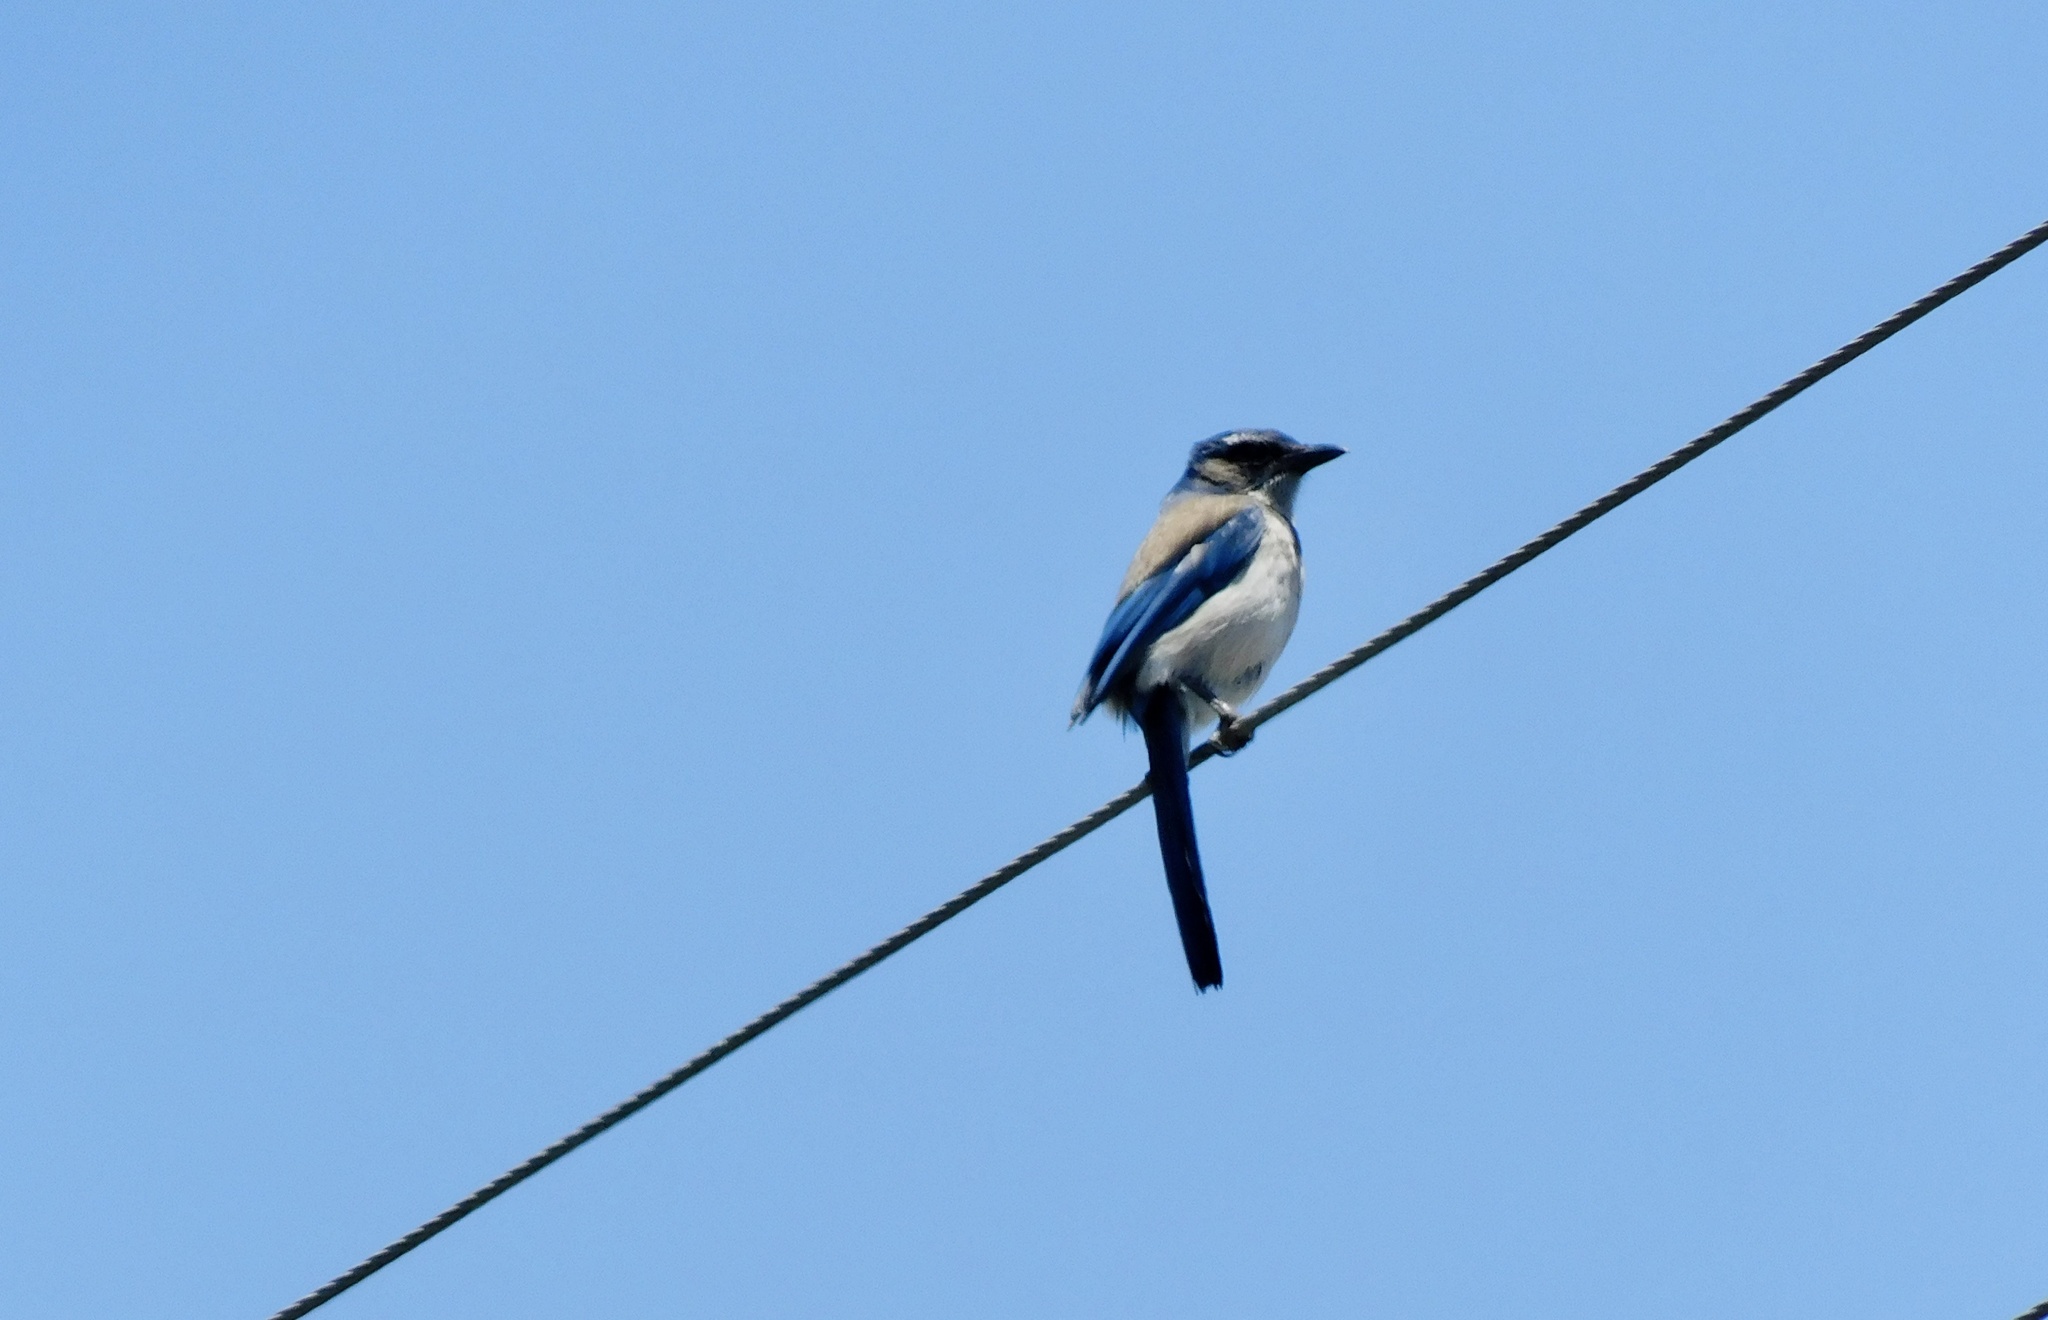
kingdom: Animalia
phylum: Chordata
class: Aves
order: Passeriformes
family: Corvidae
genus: Aphelocoma
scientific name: Aphelocoma californica
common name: California scrub-jay
